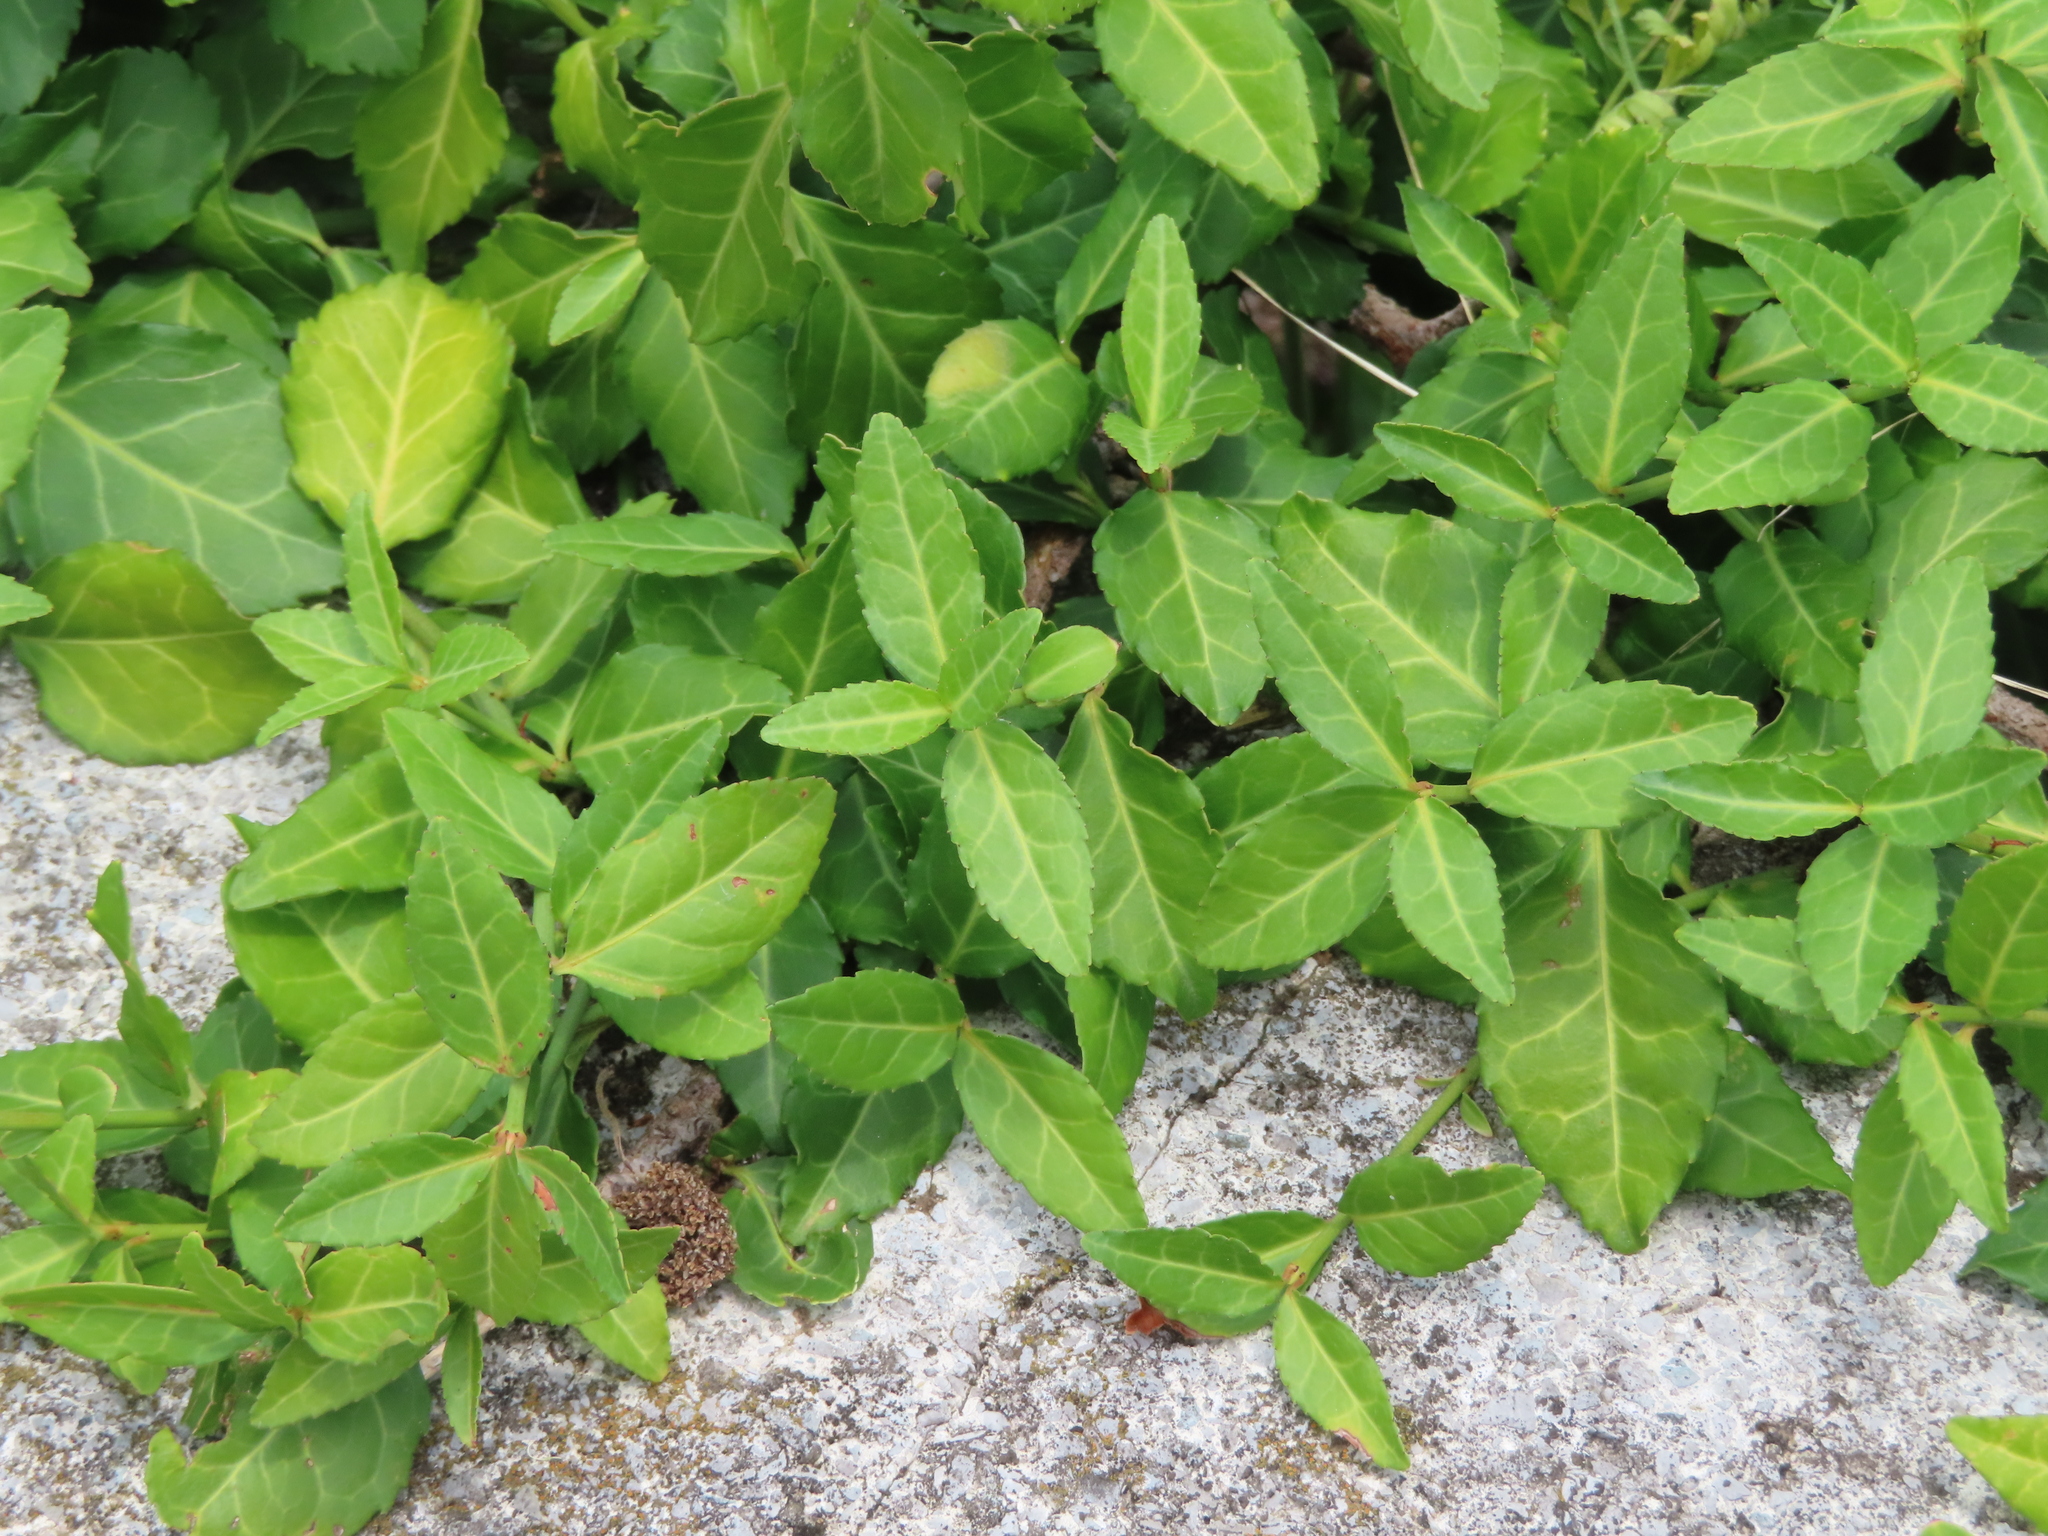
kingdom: Plantae
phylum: Tracheophyta
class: Magnoliopsida
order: Celastrales
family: Celastraceae
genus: Euonymus
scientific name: Euonymus fortunei
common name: Climbing euonymus
